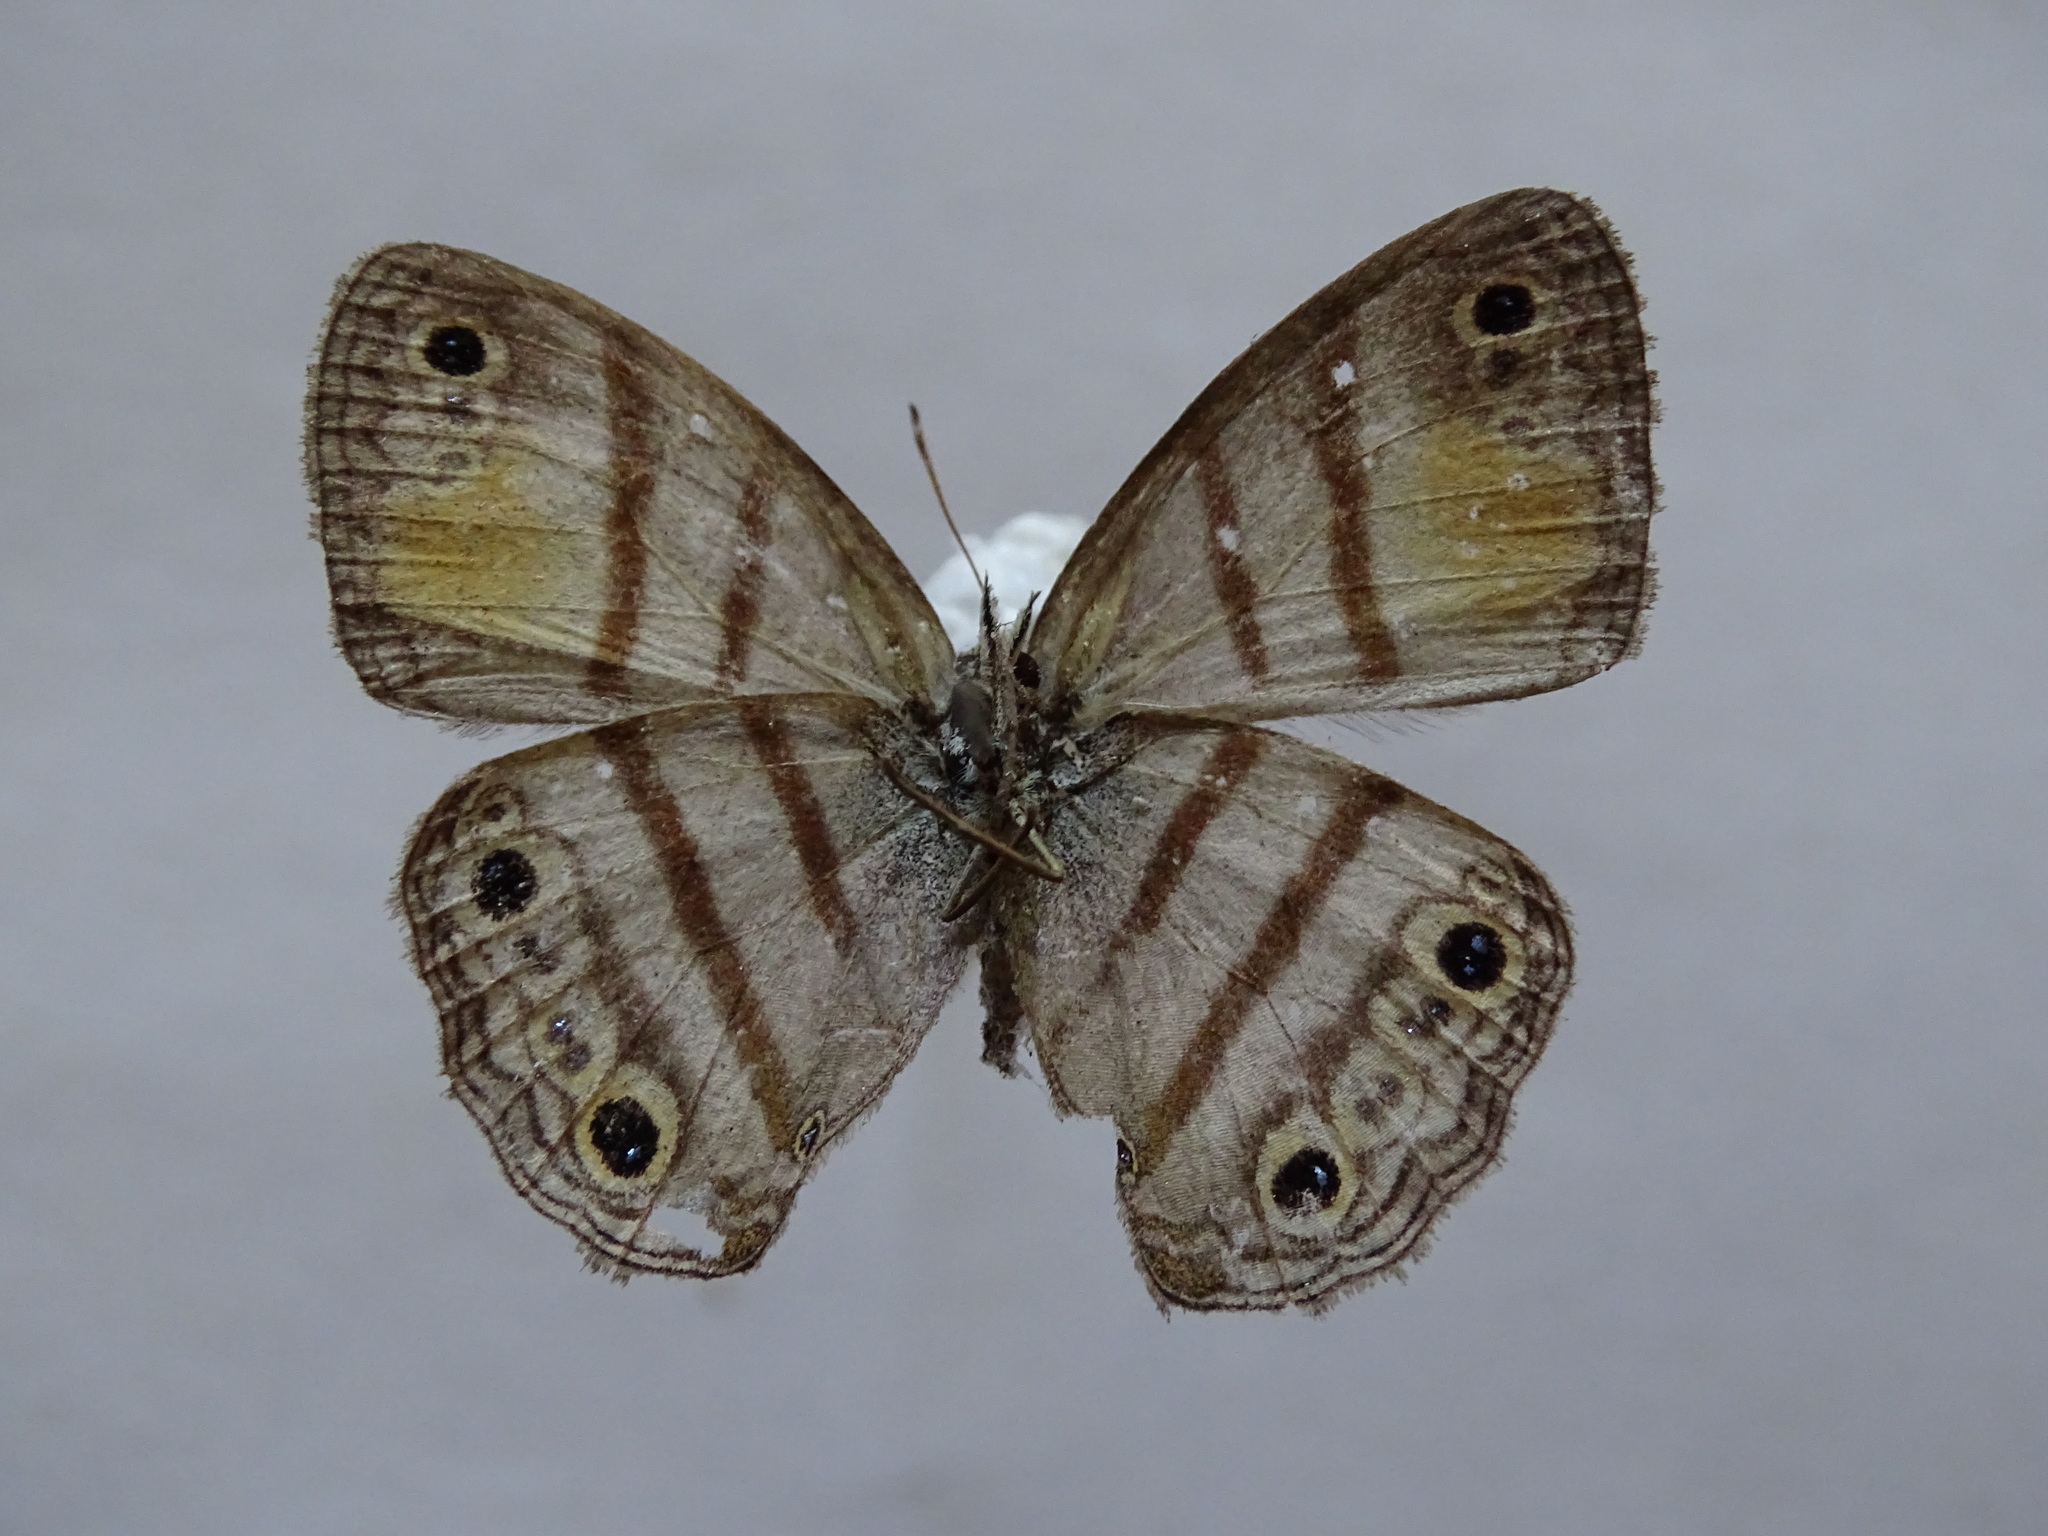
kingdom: Animalia
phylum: Arthropoda
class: Insecta
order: Lepidoptera
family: Nymphalidae
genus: Argyreuptychia
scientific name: Argyreuptychia palladia
